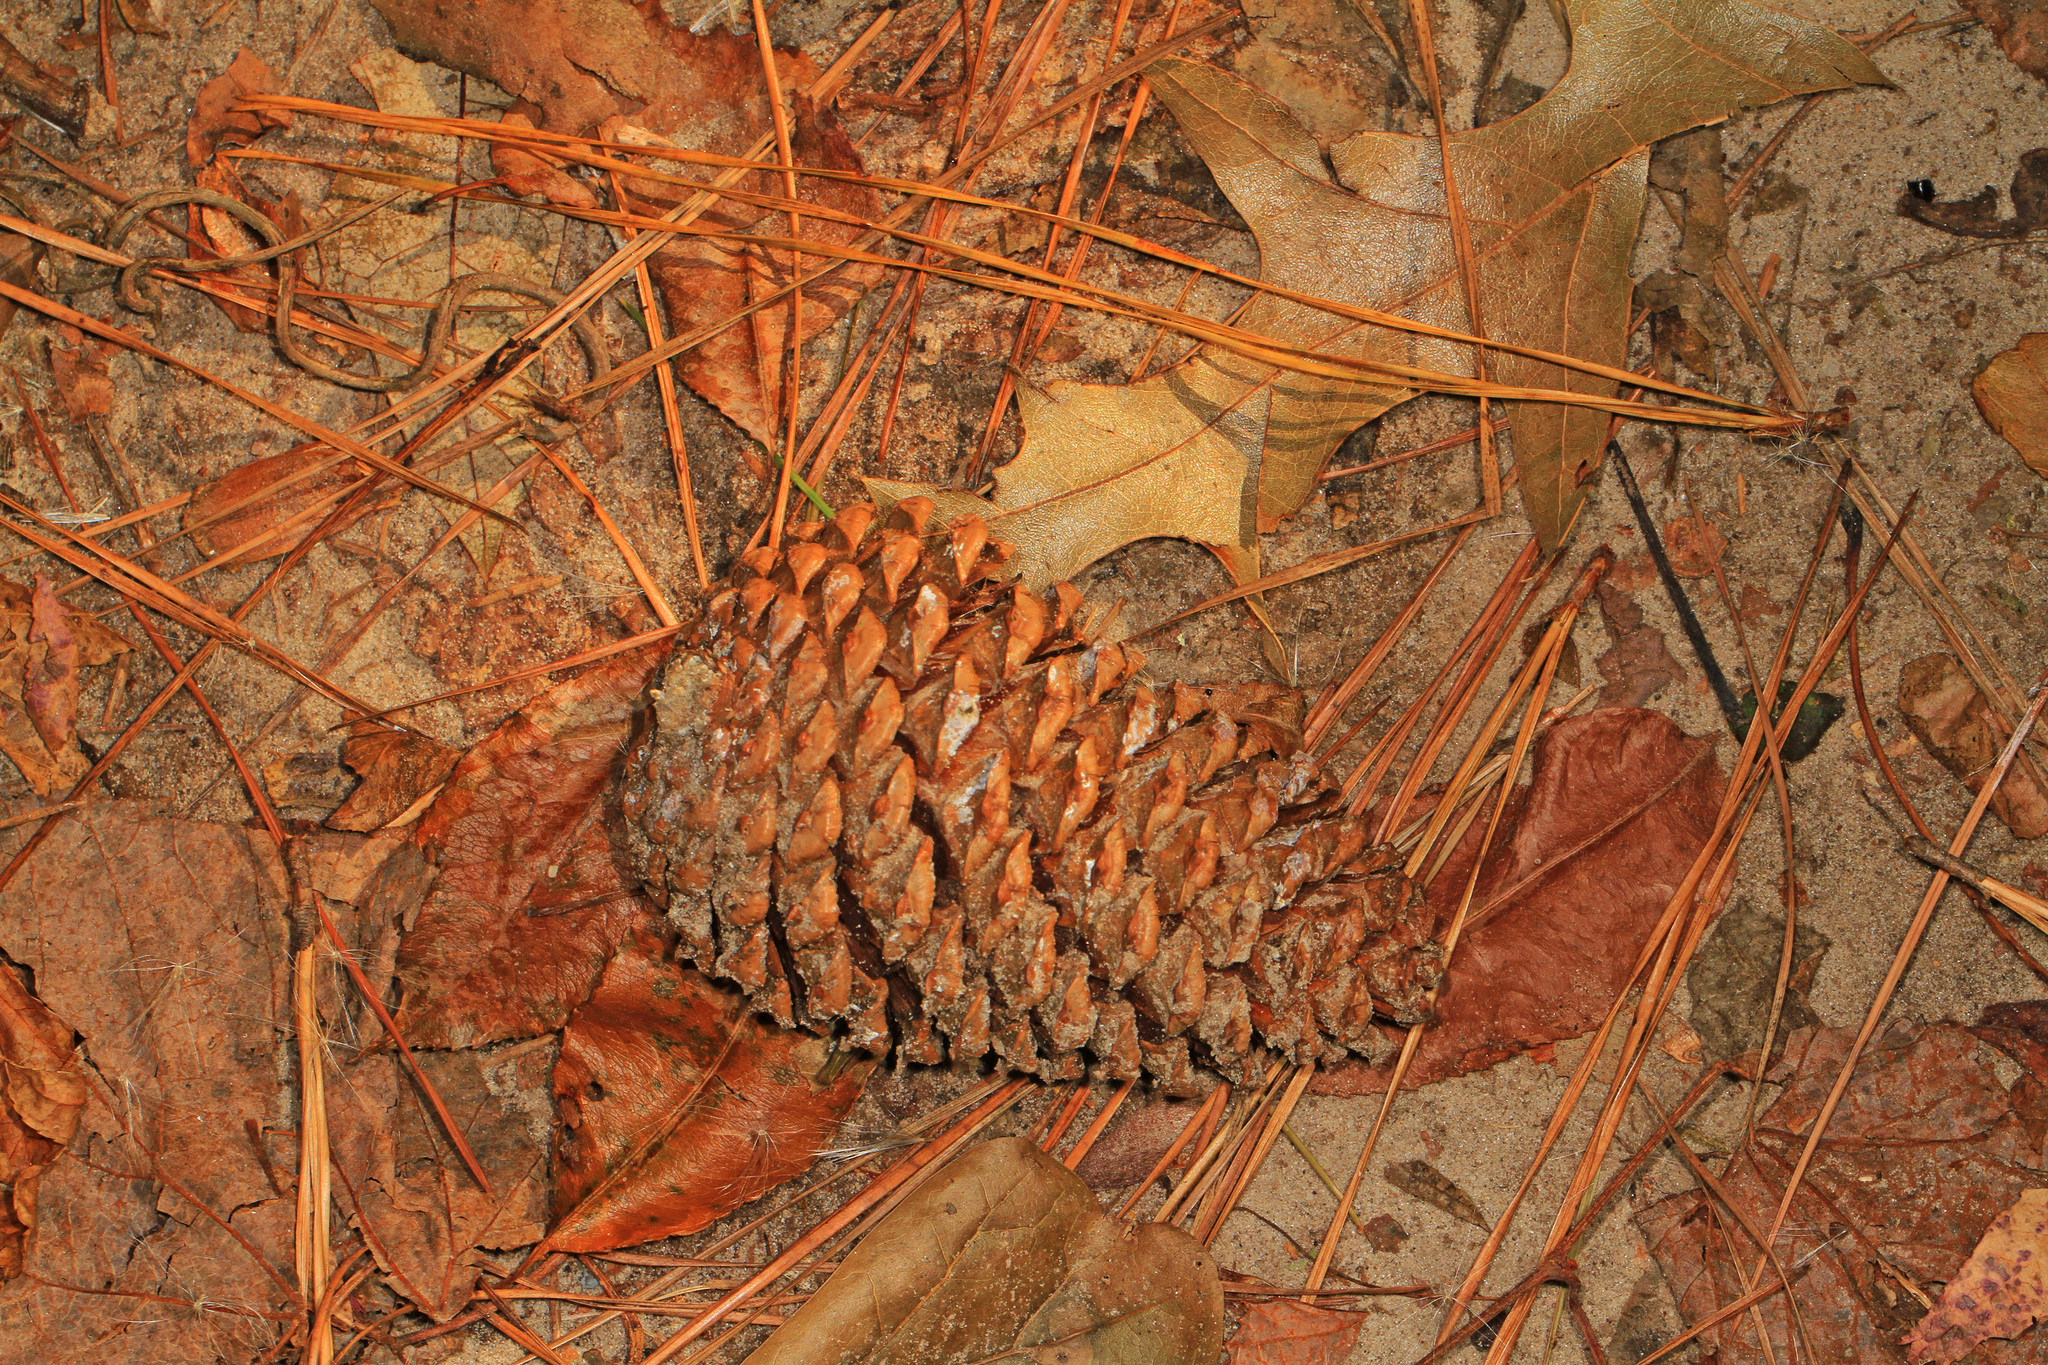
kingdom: Plantae
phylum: Tracheophyta
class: Pinopsida
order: Pinales
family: Pinaceae
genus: Pinus
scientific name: Pinus taeda
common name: Loblolly pine
